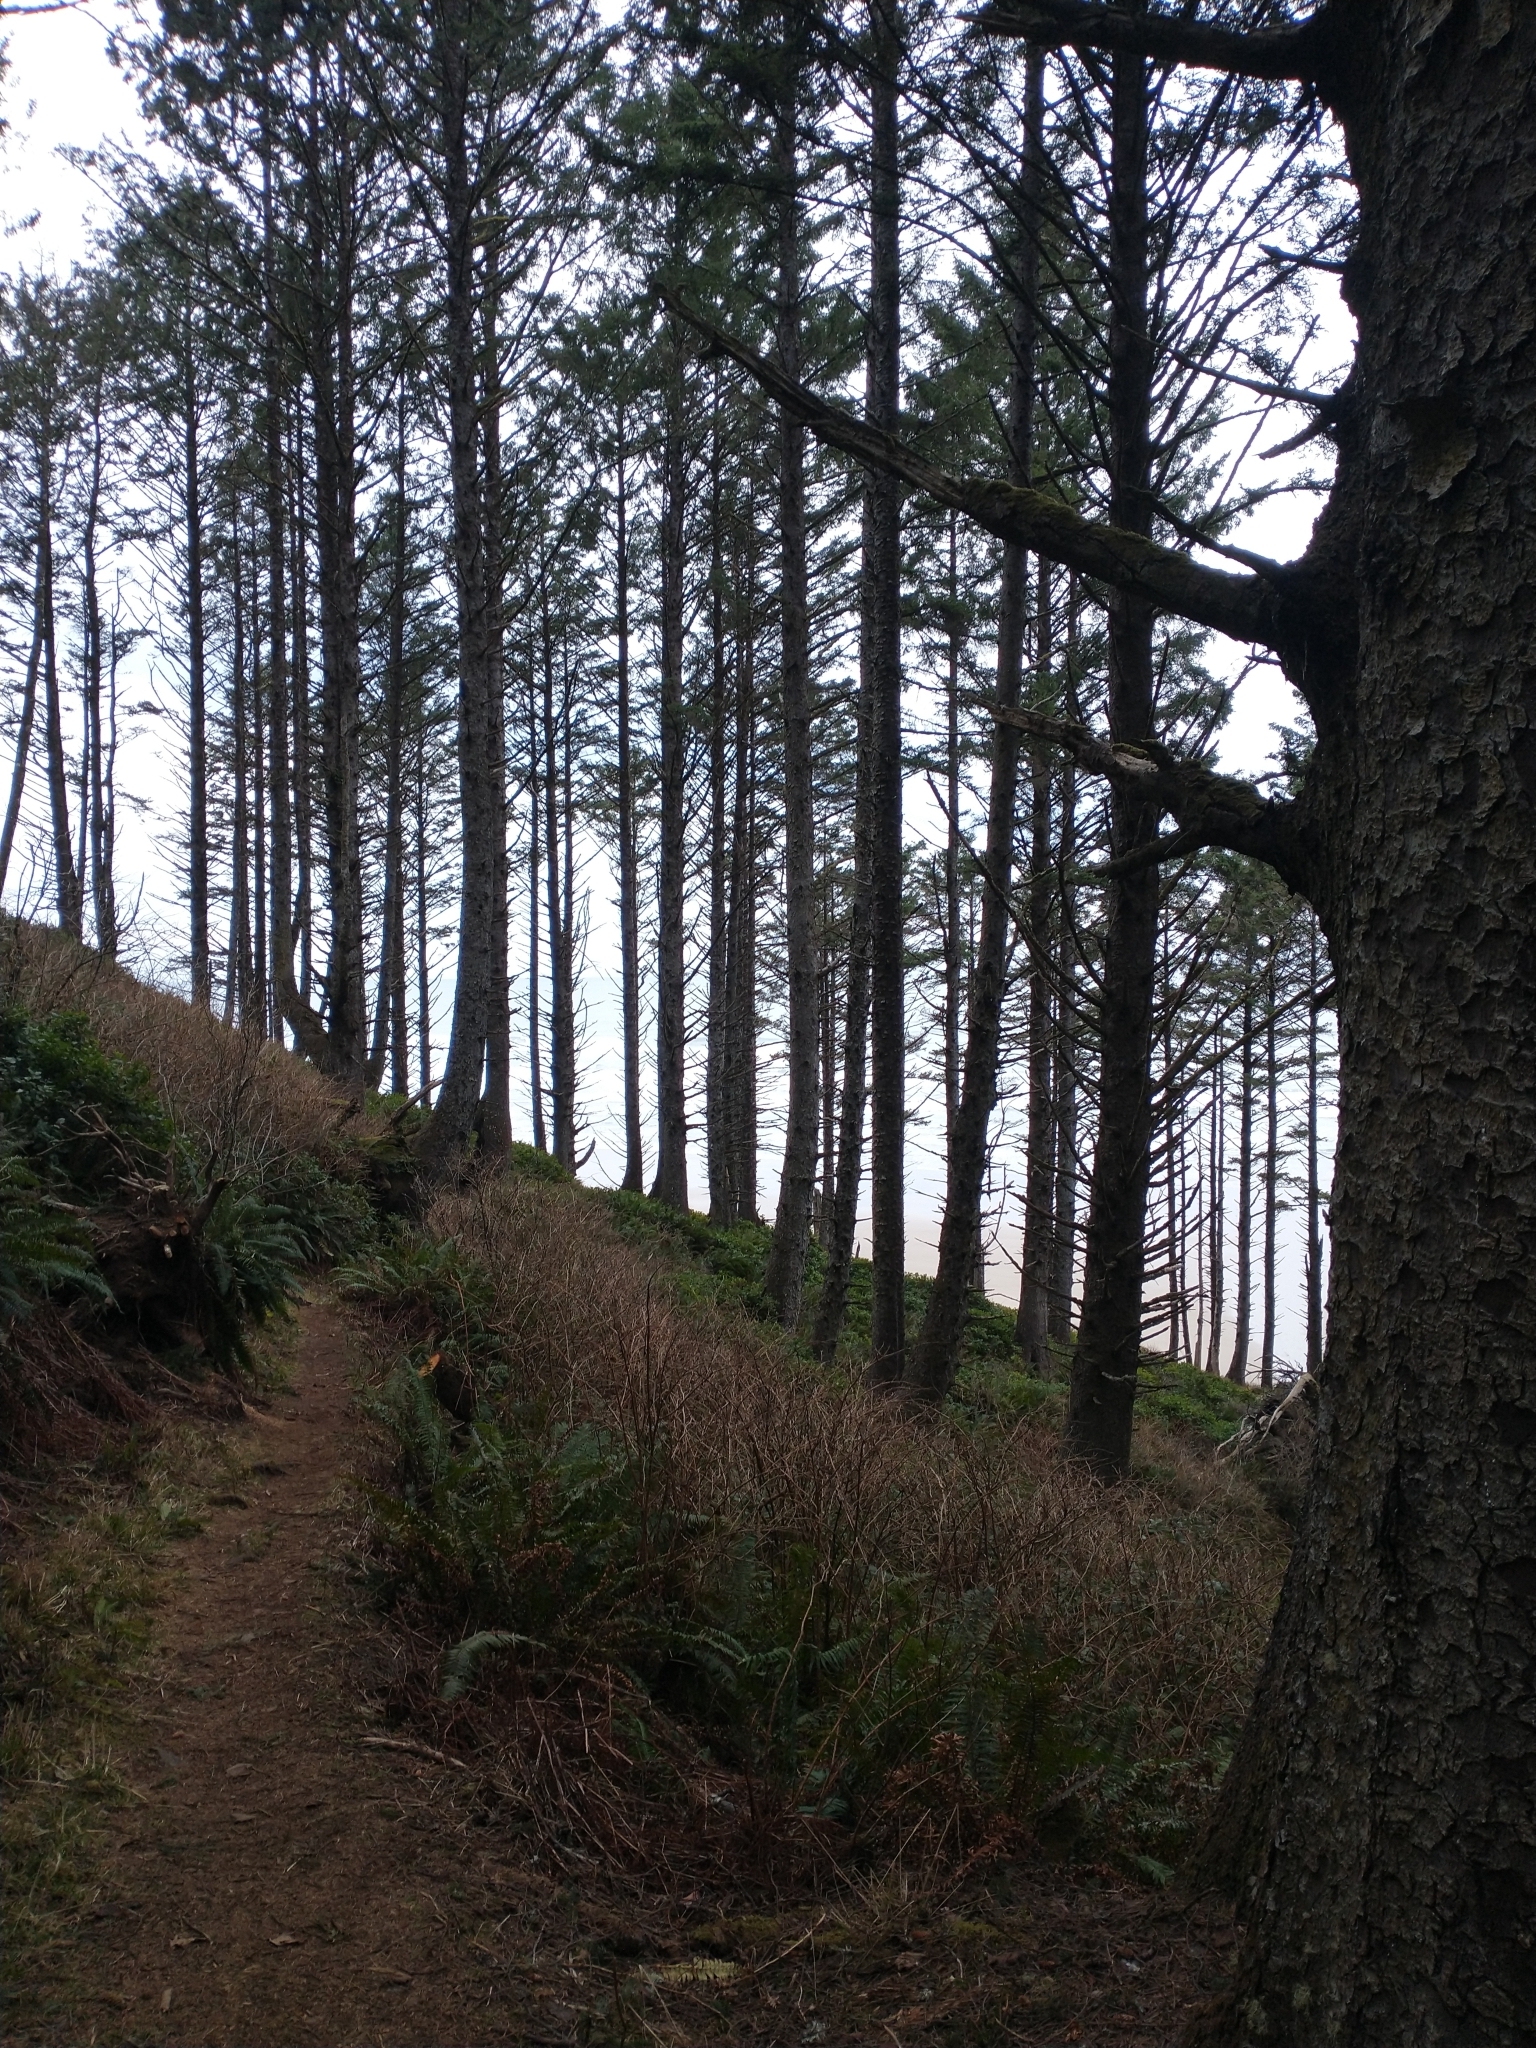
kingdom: Plantae
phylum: Tracheophyta
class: Magnoliopsida
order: Rosales
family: Rosaceae
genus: Rubus
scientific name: Rubus spectabilis
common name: Salmonberry
